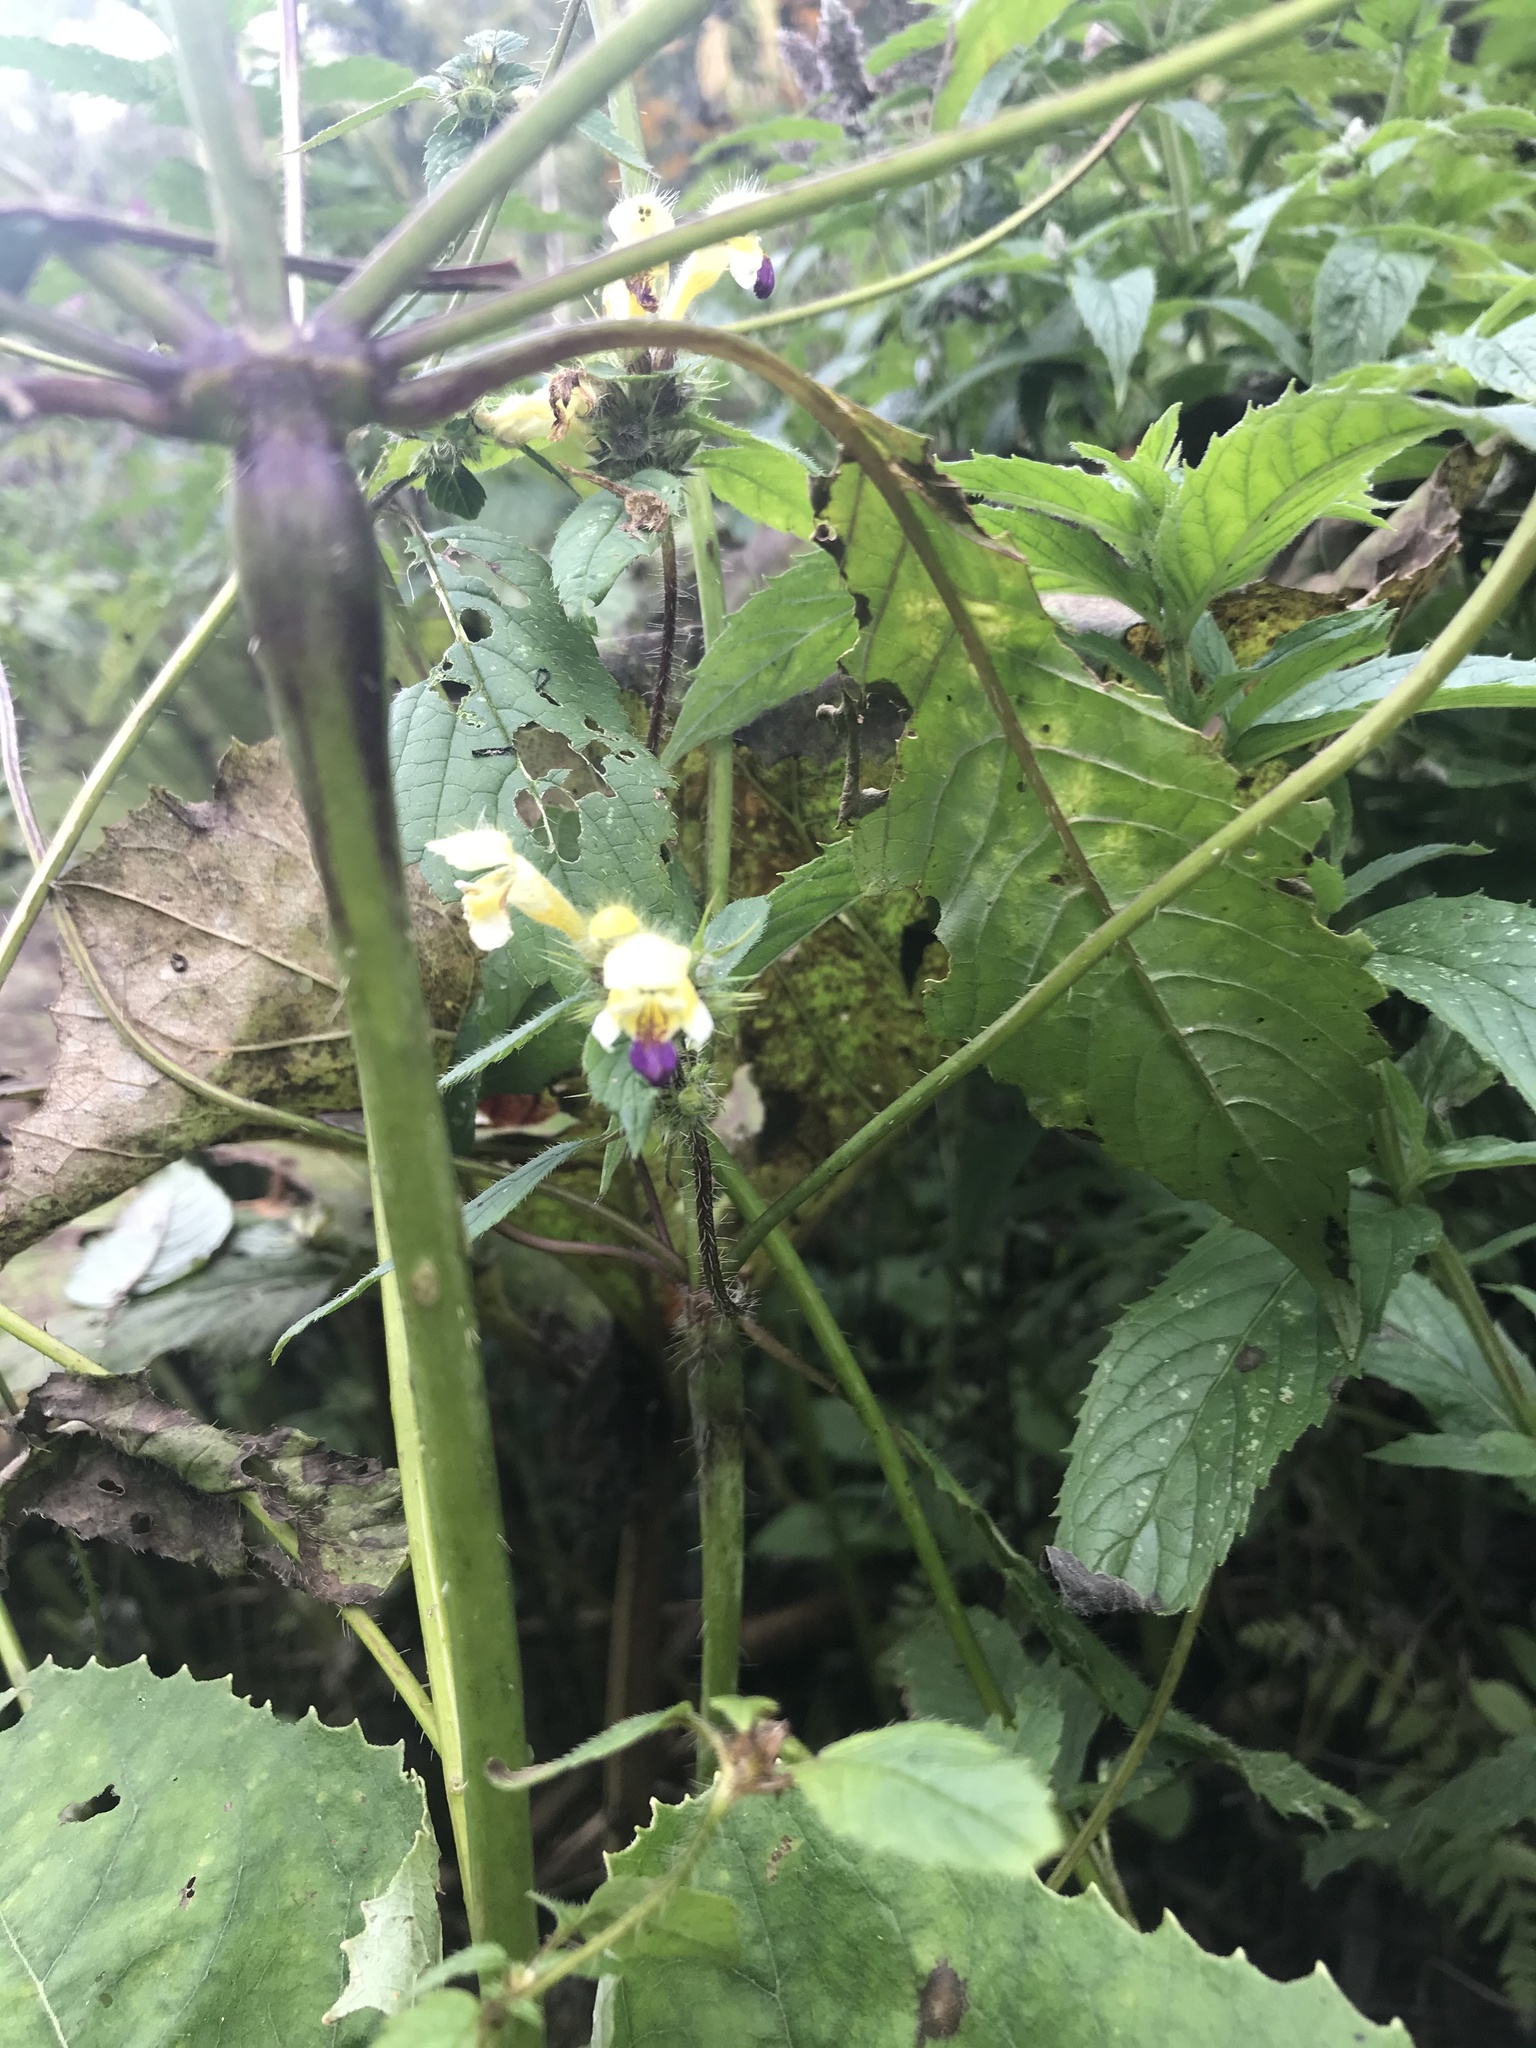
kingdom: Plantae
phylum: Tracheophyta
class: Magnoliopsida
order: Lamiales
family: Lamiaceae
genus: Galeopsis
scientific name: Galeopsis speciosa
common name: Large-flowered hemp-nettle
